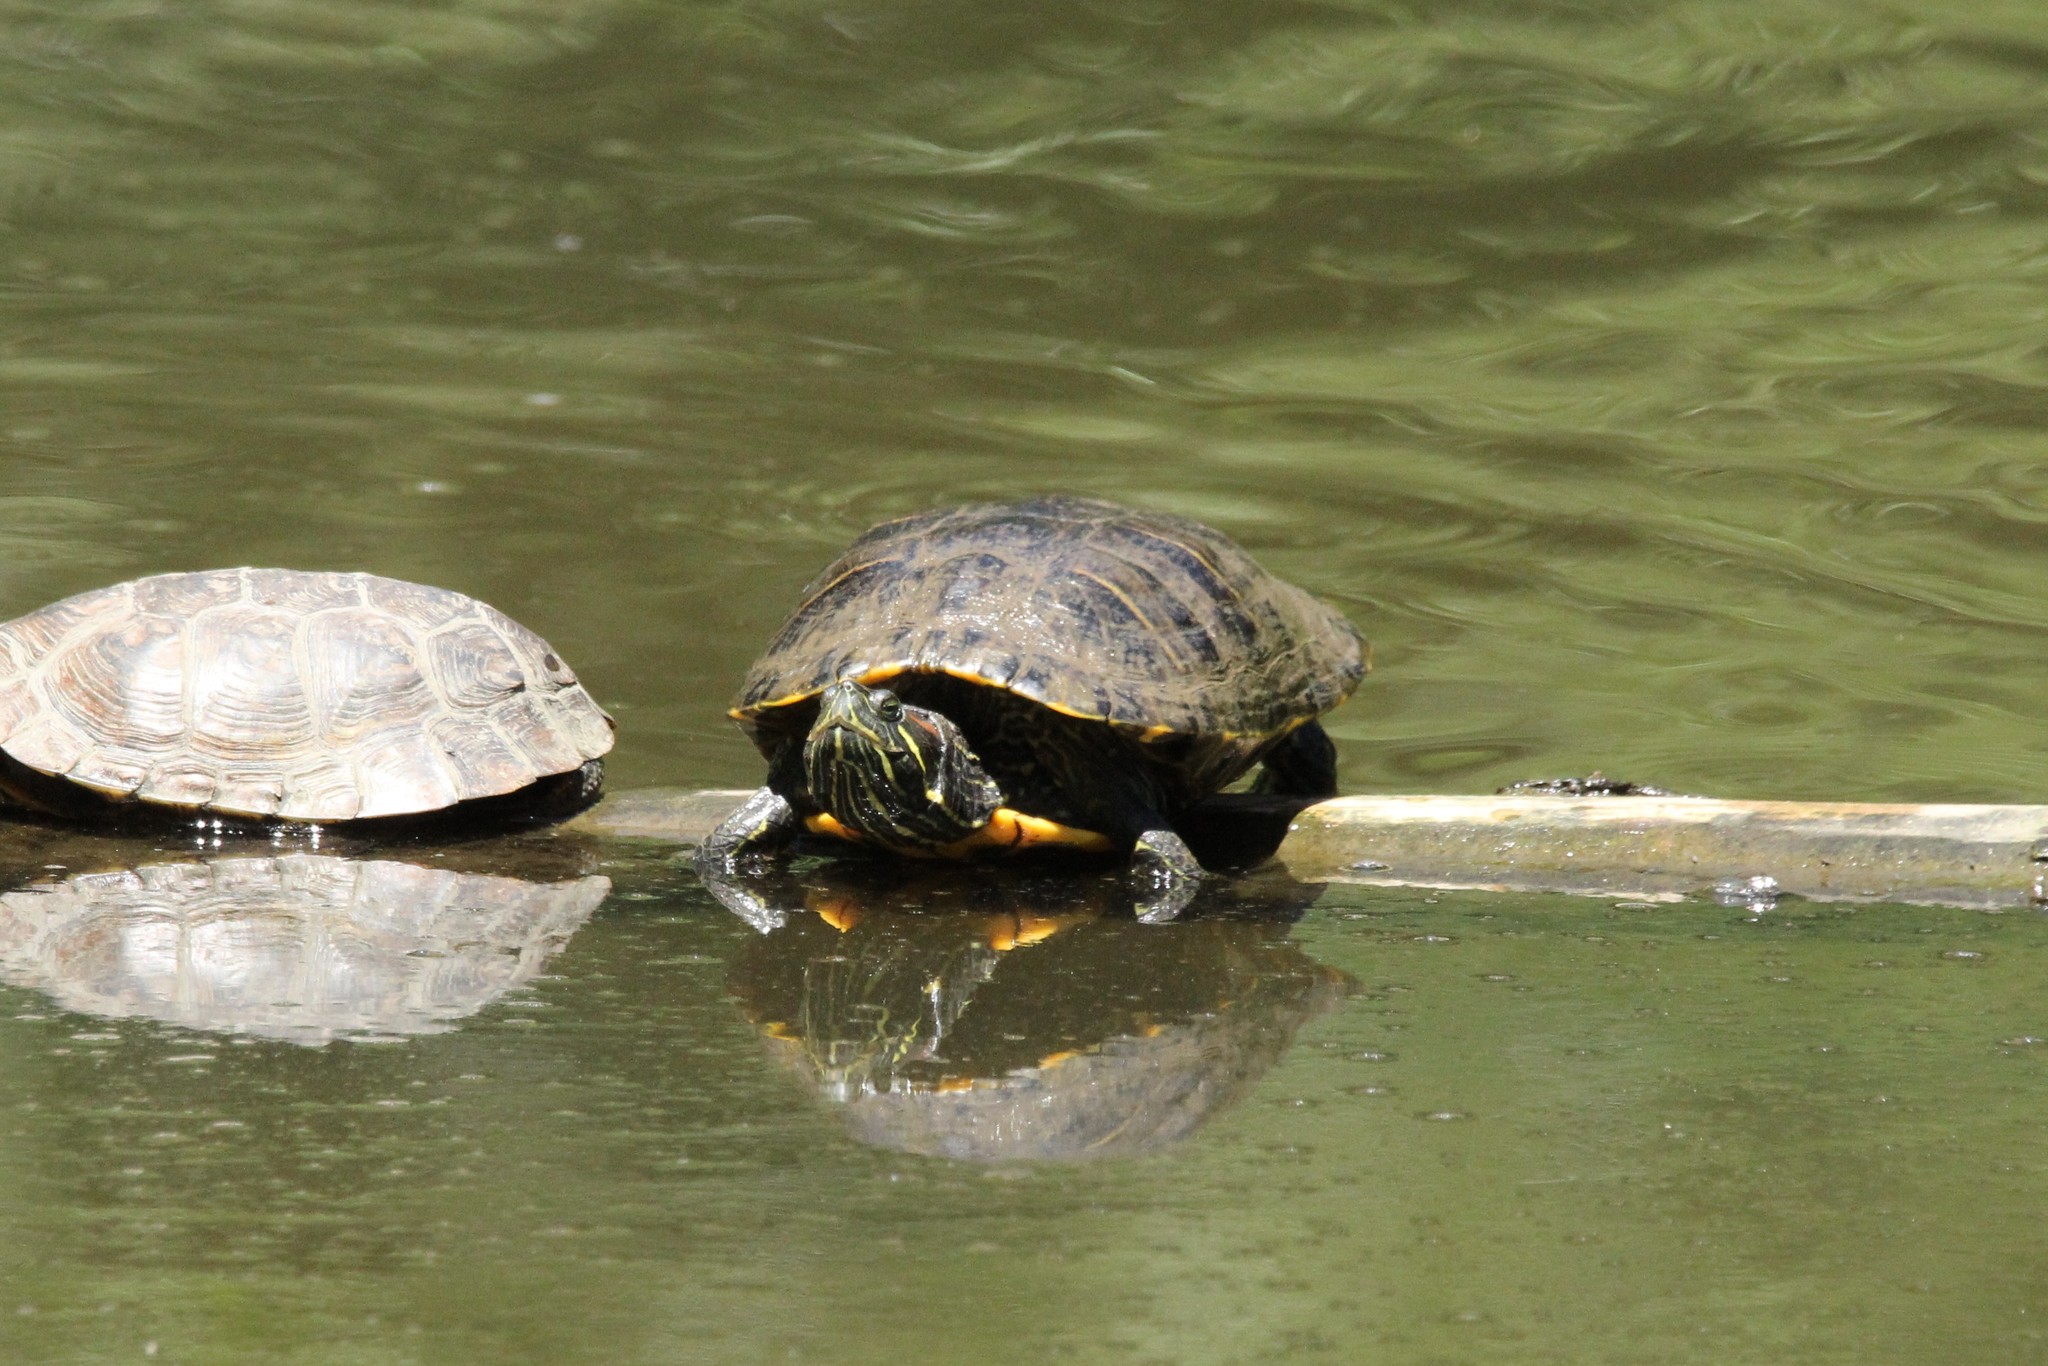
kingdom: Animalia
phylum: Chordata
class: Testudines
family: Emydidae
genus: Trachemys
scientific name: Trachemys scripta
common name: Slider
